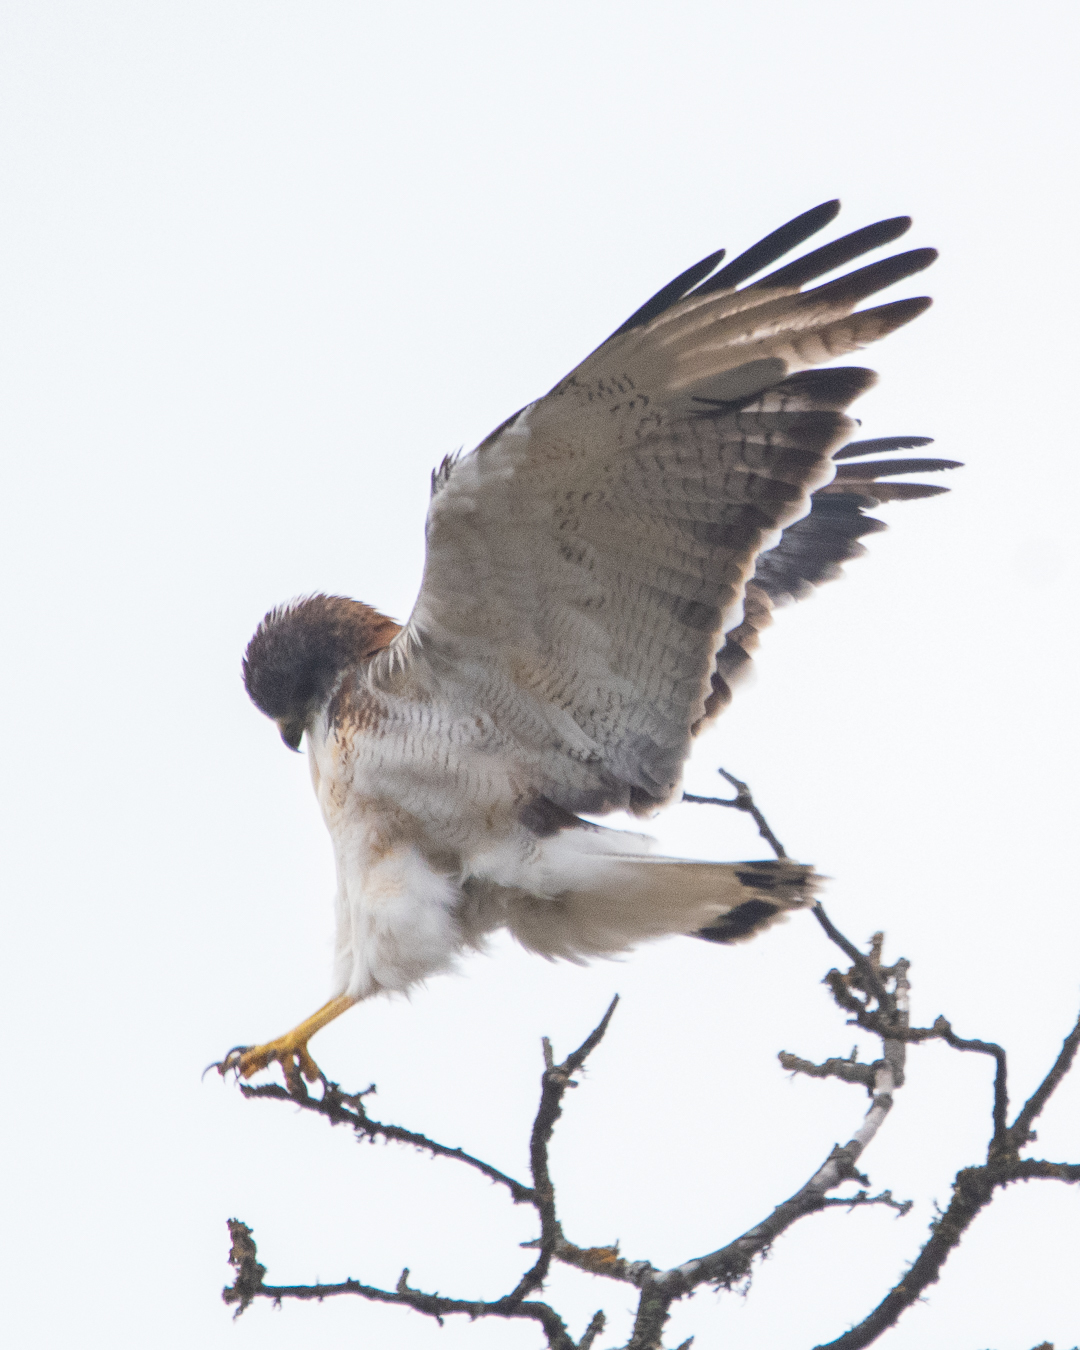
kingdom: Animalia
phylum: Chordata
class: Aves
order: Accipitriformes
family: Accipitridae
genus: Buteo
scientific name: Buteo polyosoma
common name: Variable hawk
